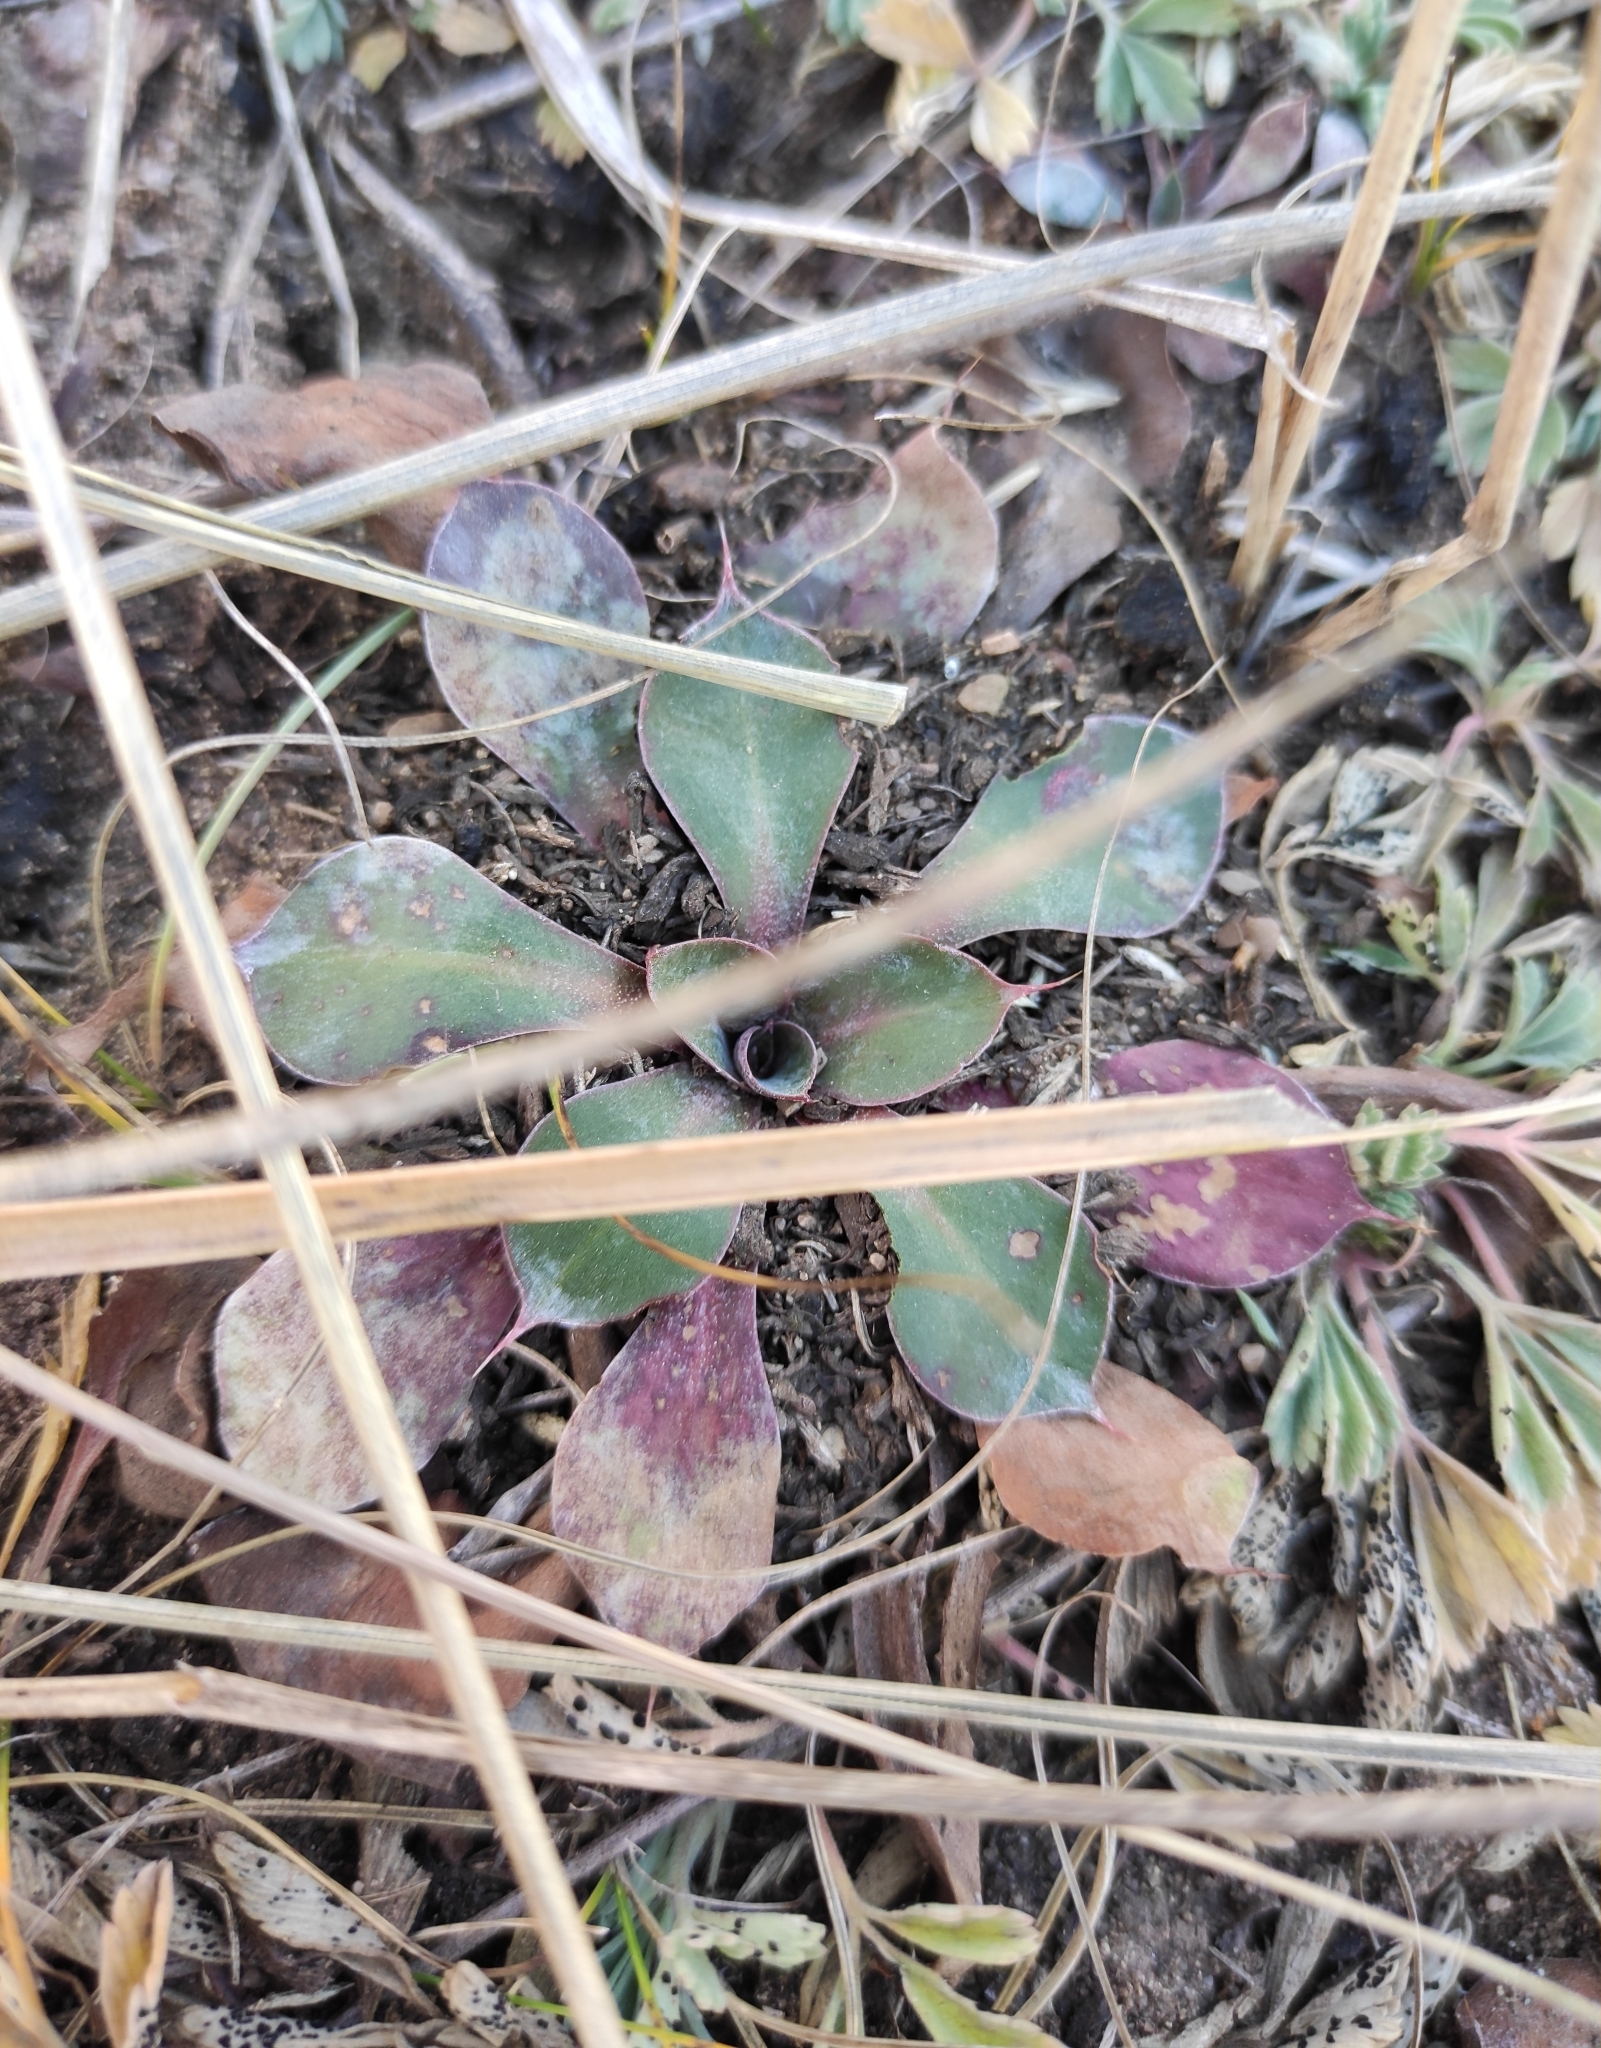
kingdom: Plantae
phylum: Tracheophyta
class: Magnoliopsida
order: Caryophyllales
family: Plumbaginaceae
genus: Goniolimon
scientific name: Goniolimon speciosum
